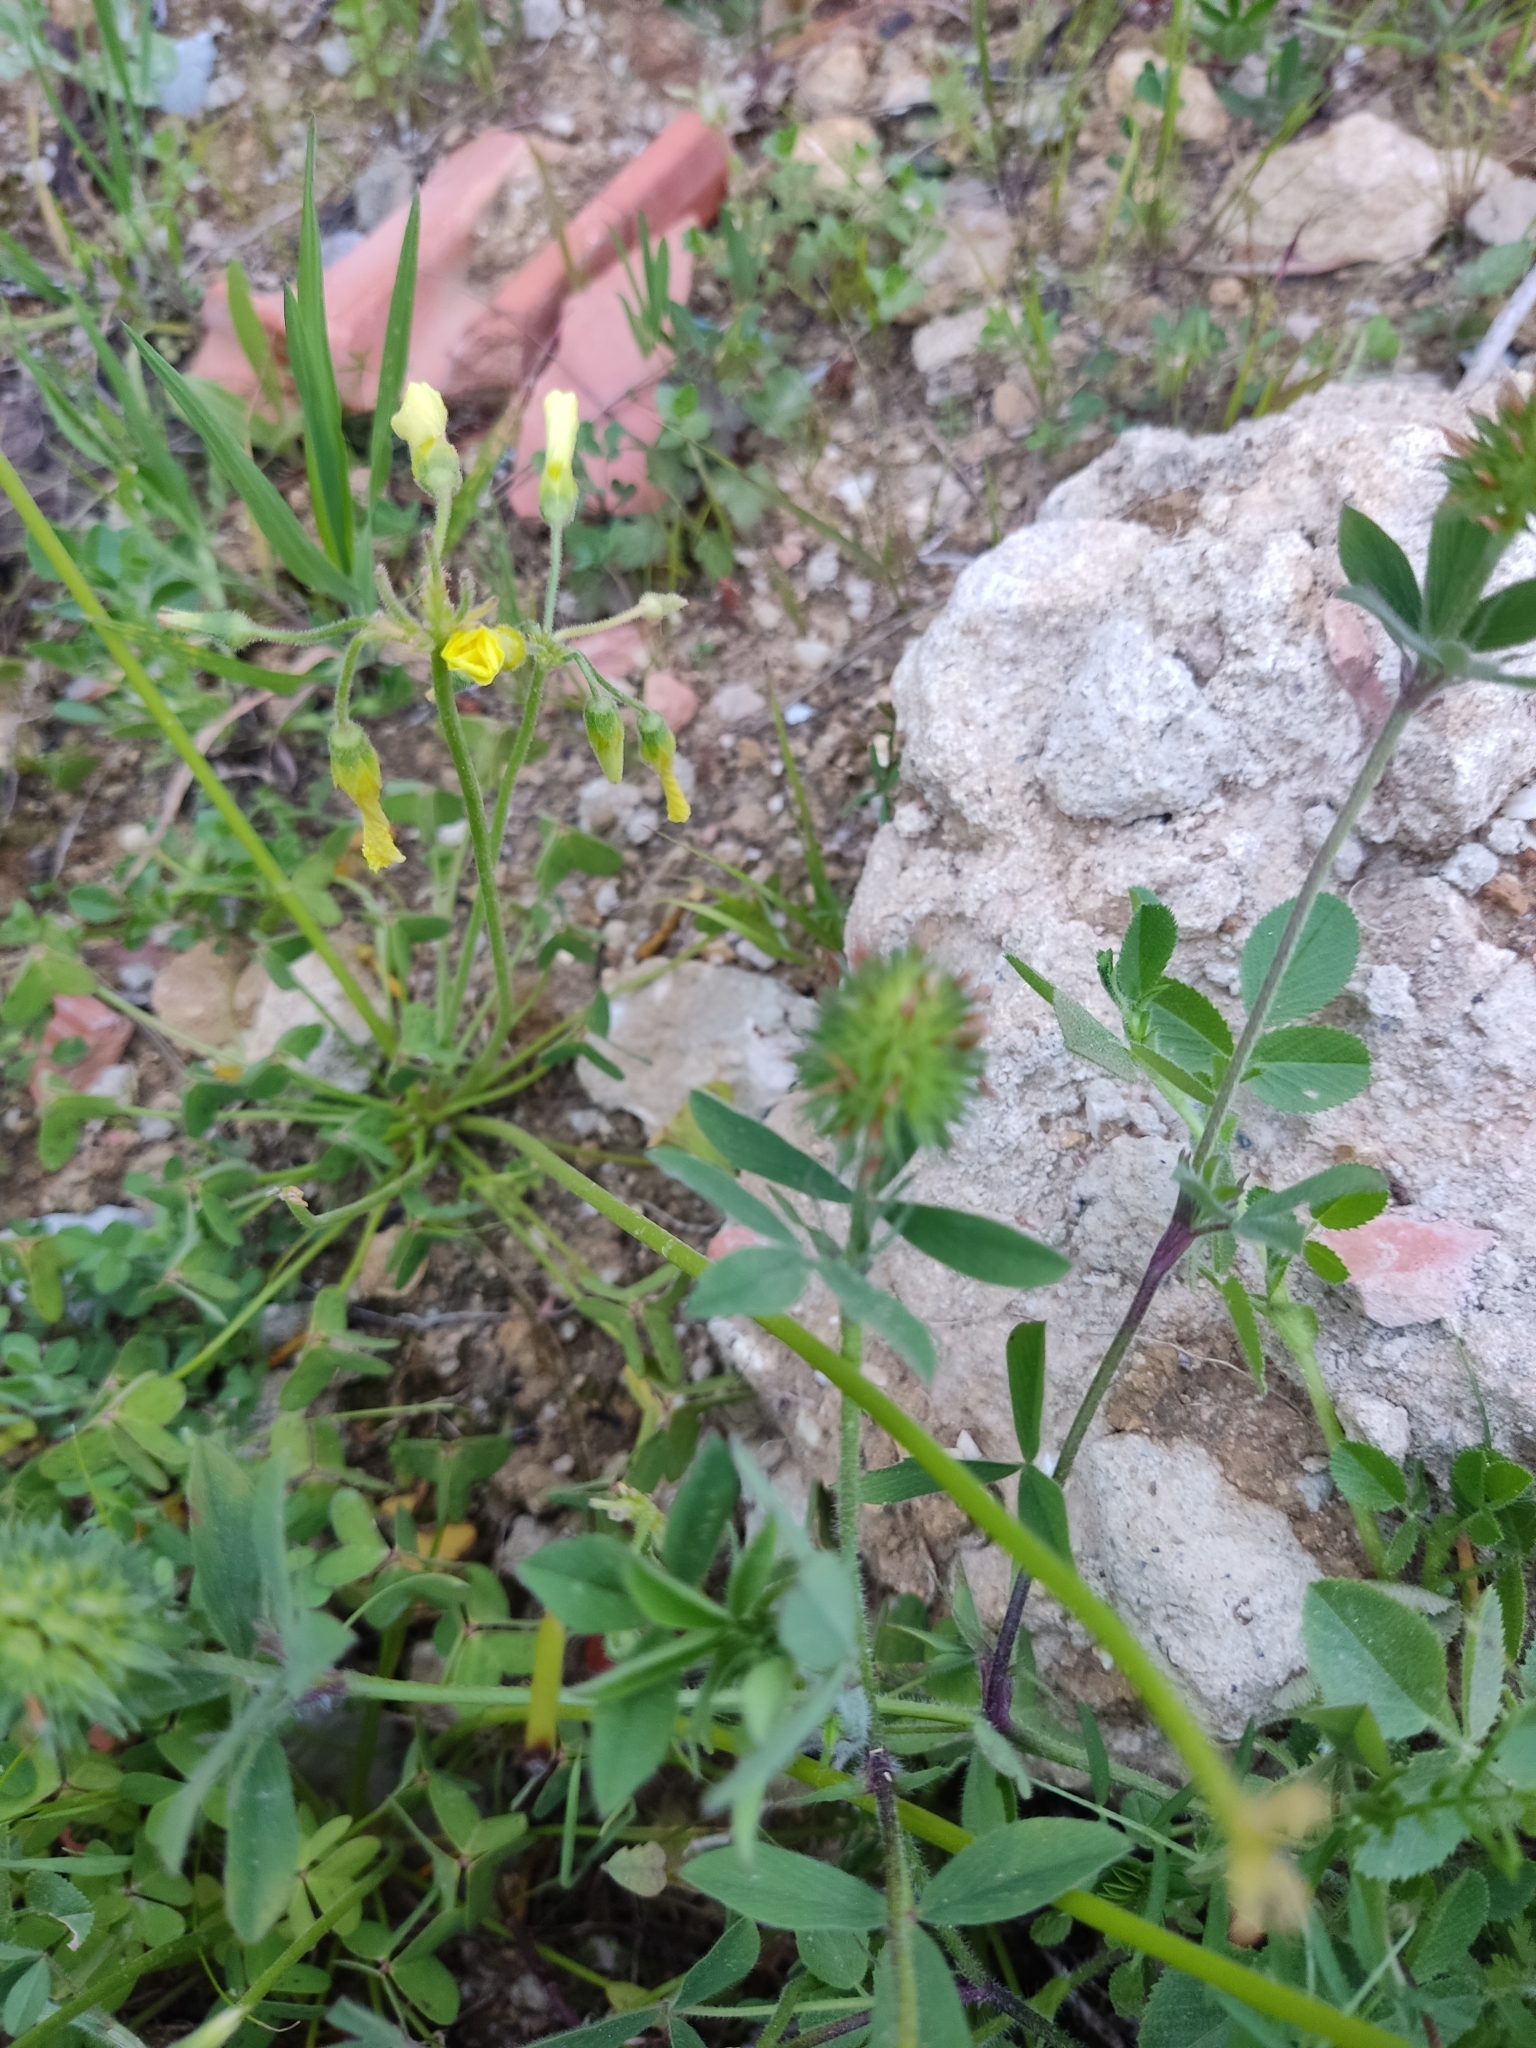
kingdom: Plantae
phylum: Tracheophyta
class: Magnoliopsida
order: Fabales
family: Fabaceae
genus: Trifolium
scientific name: Trifolium squamosum
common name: Sea clover
